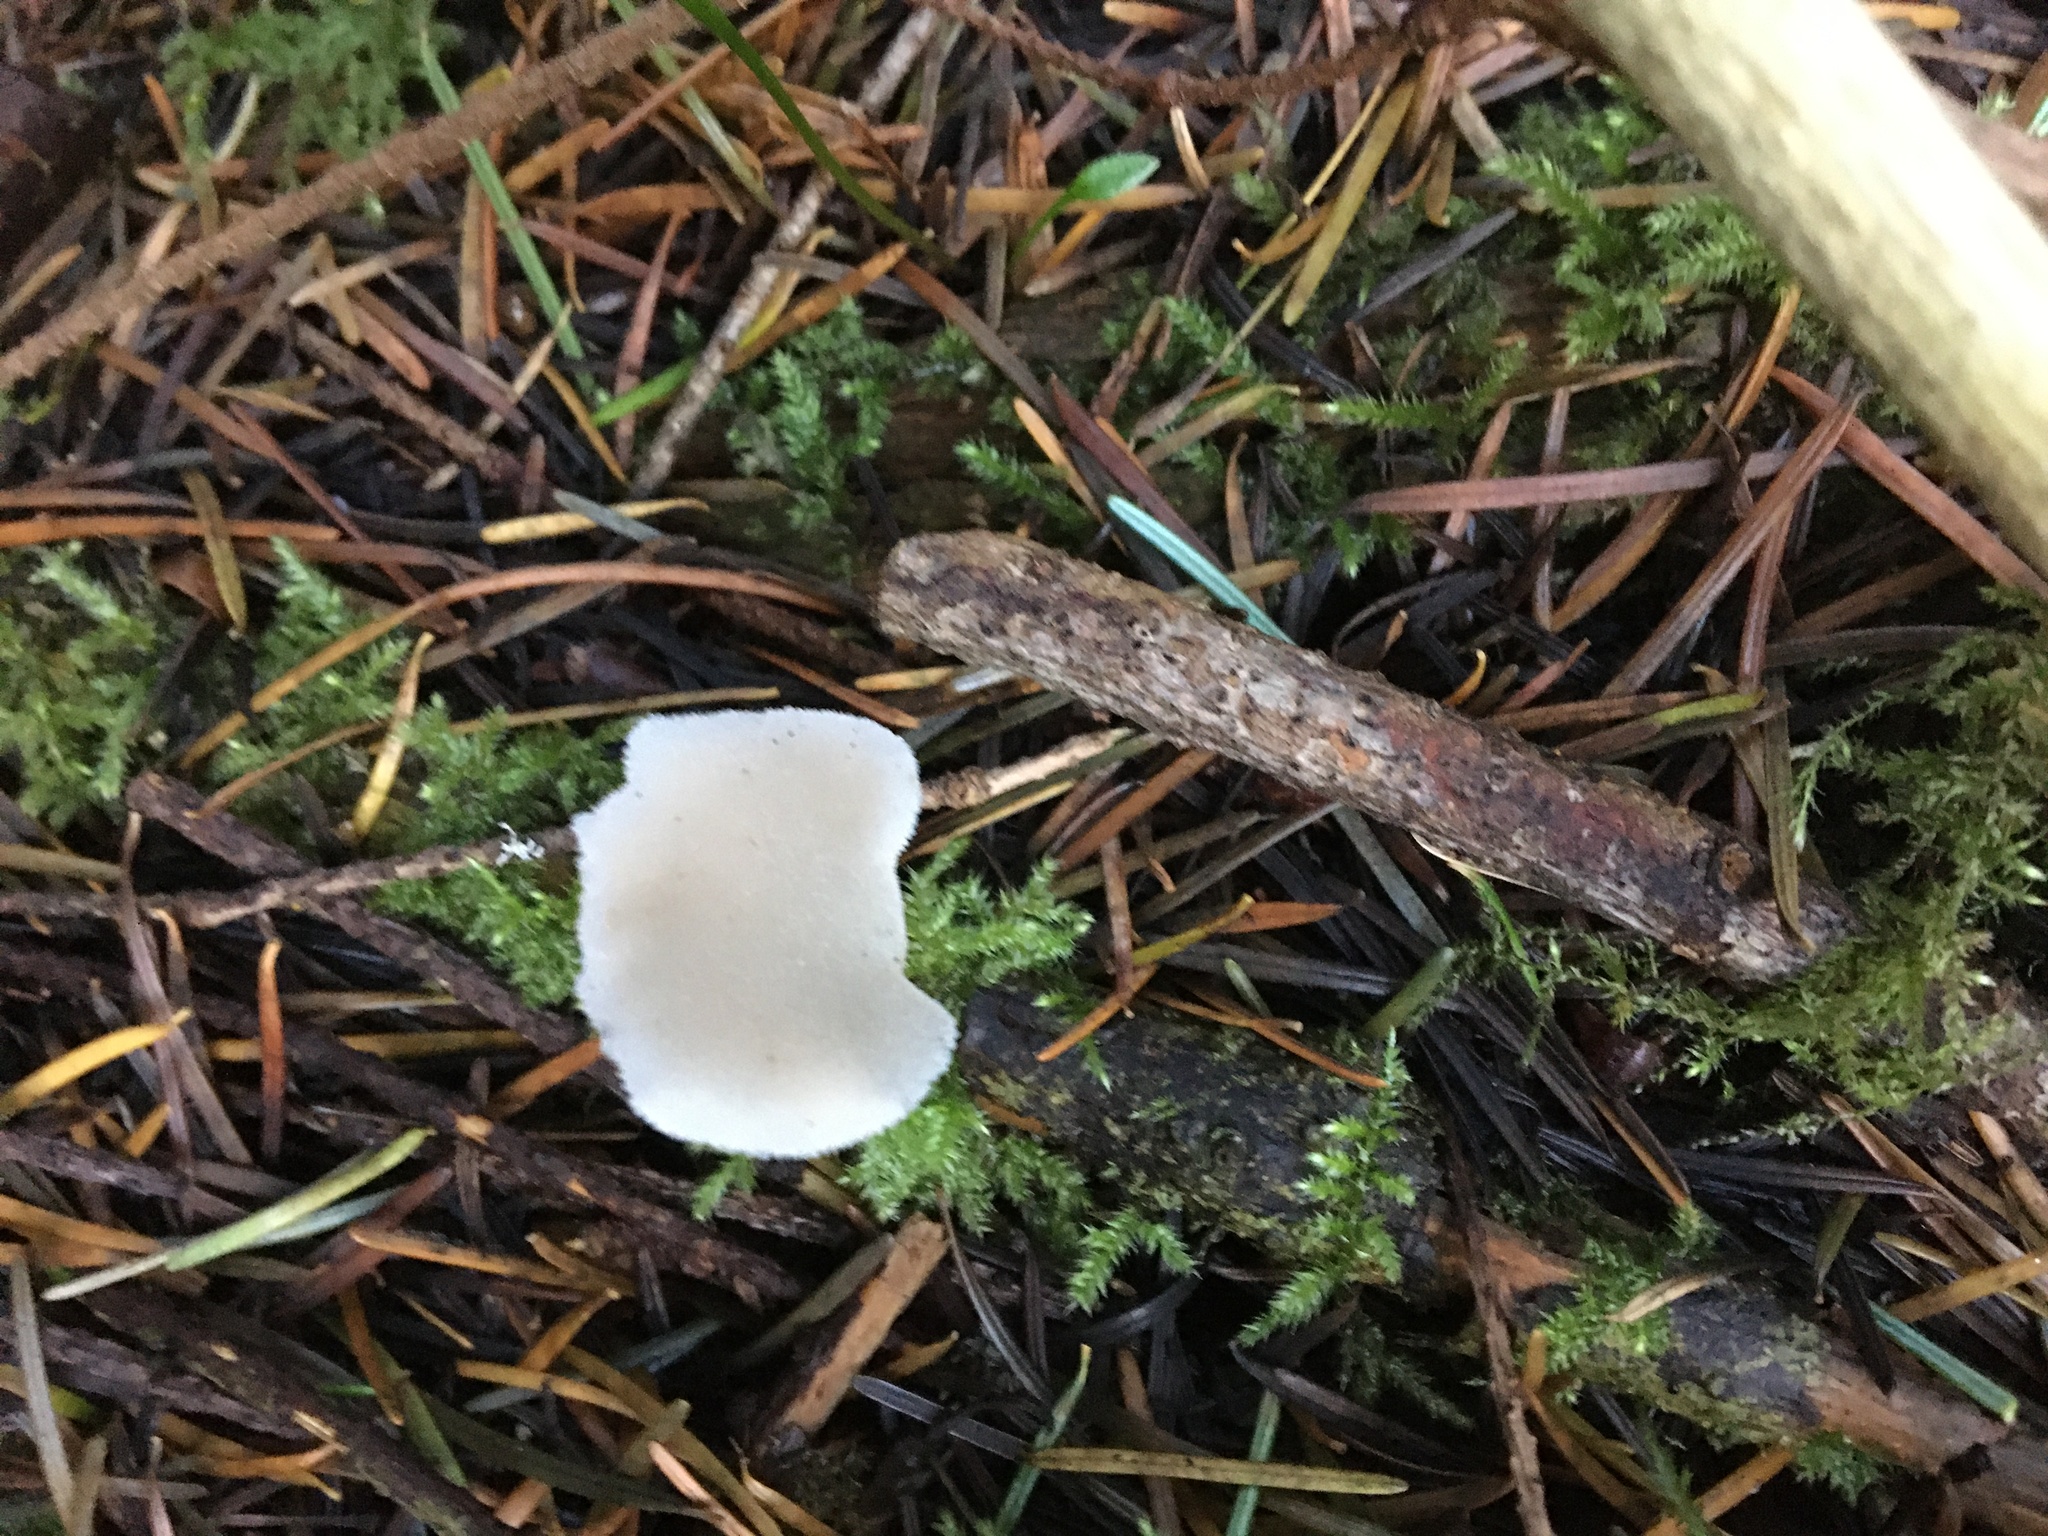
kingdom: Fungi
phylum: Basidiomycota
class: Agaricomycetes
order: Auriculariales
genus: Pseudohydnum
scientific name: Pseudohydnum gelatinosum
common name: Jelly tongue
